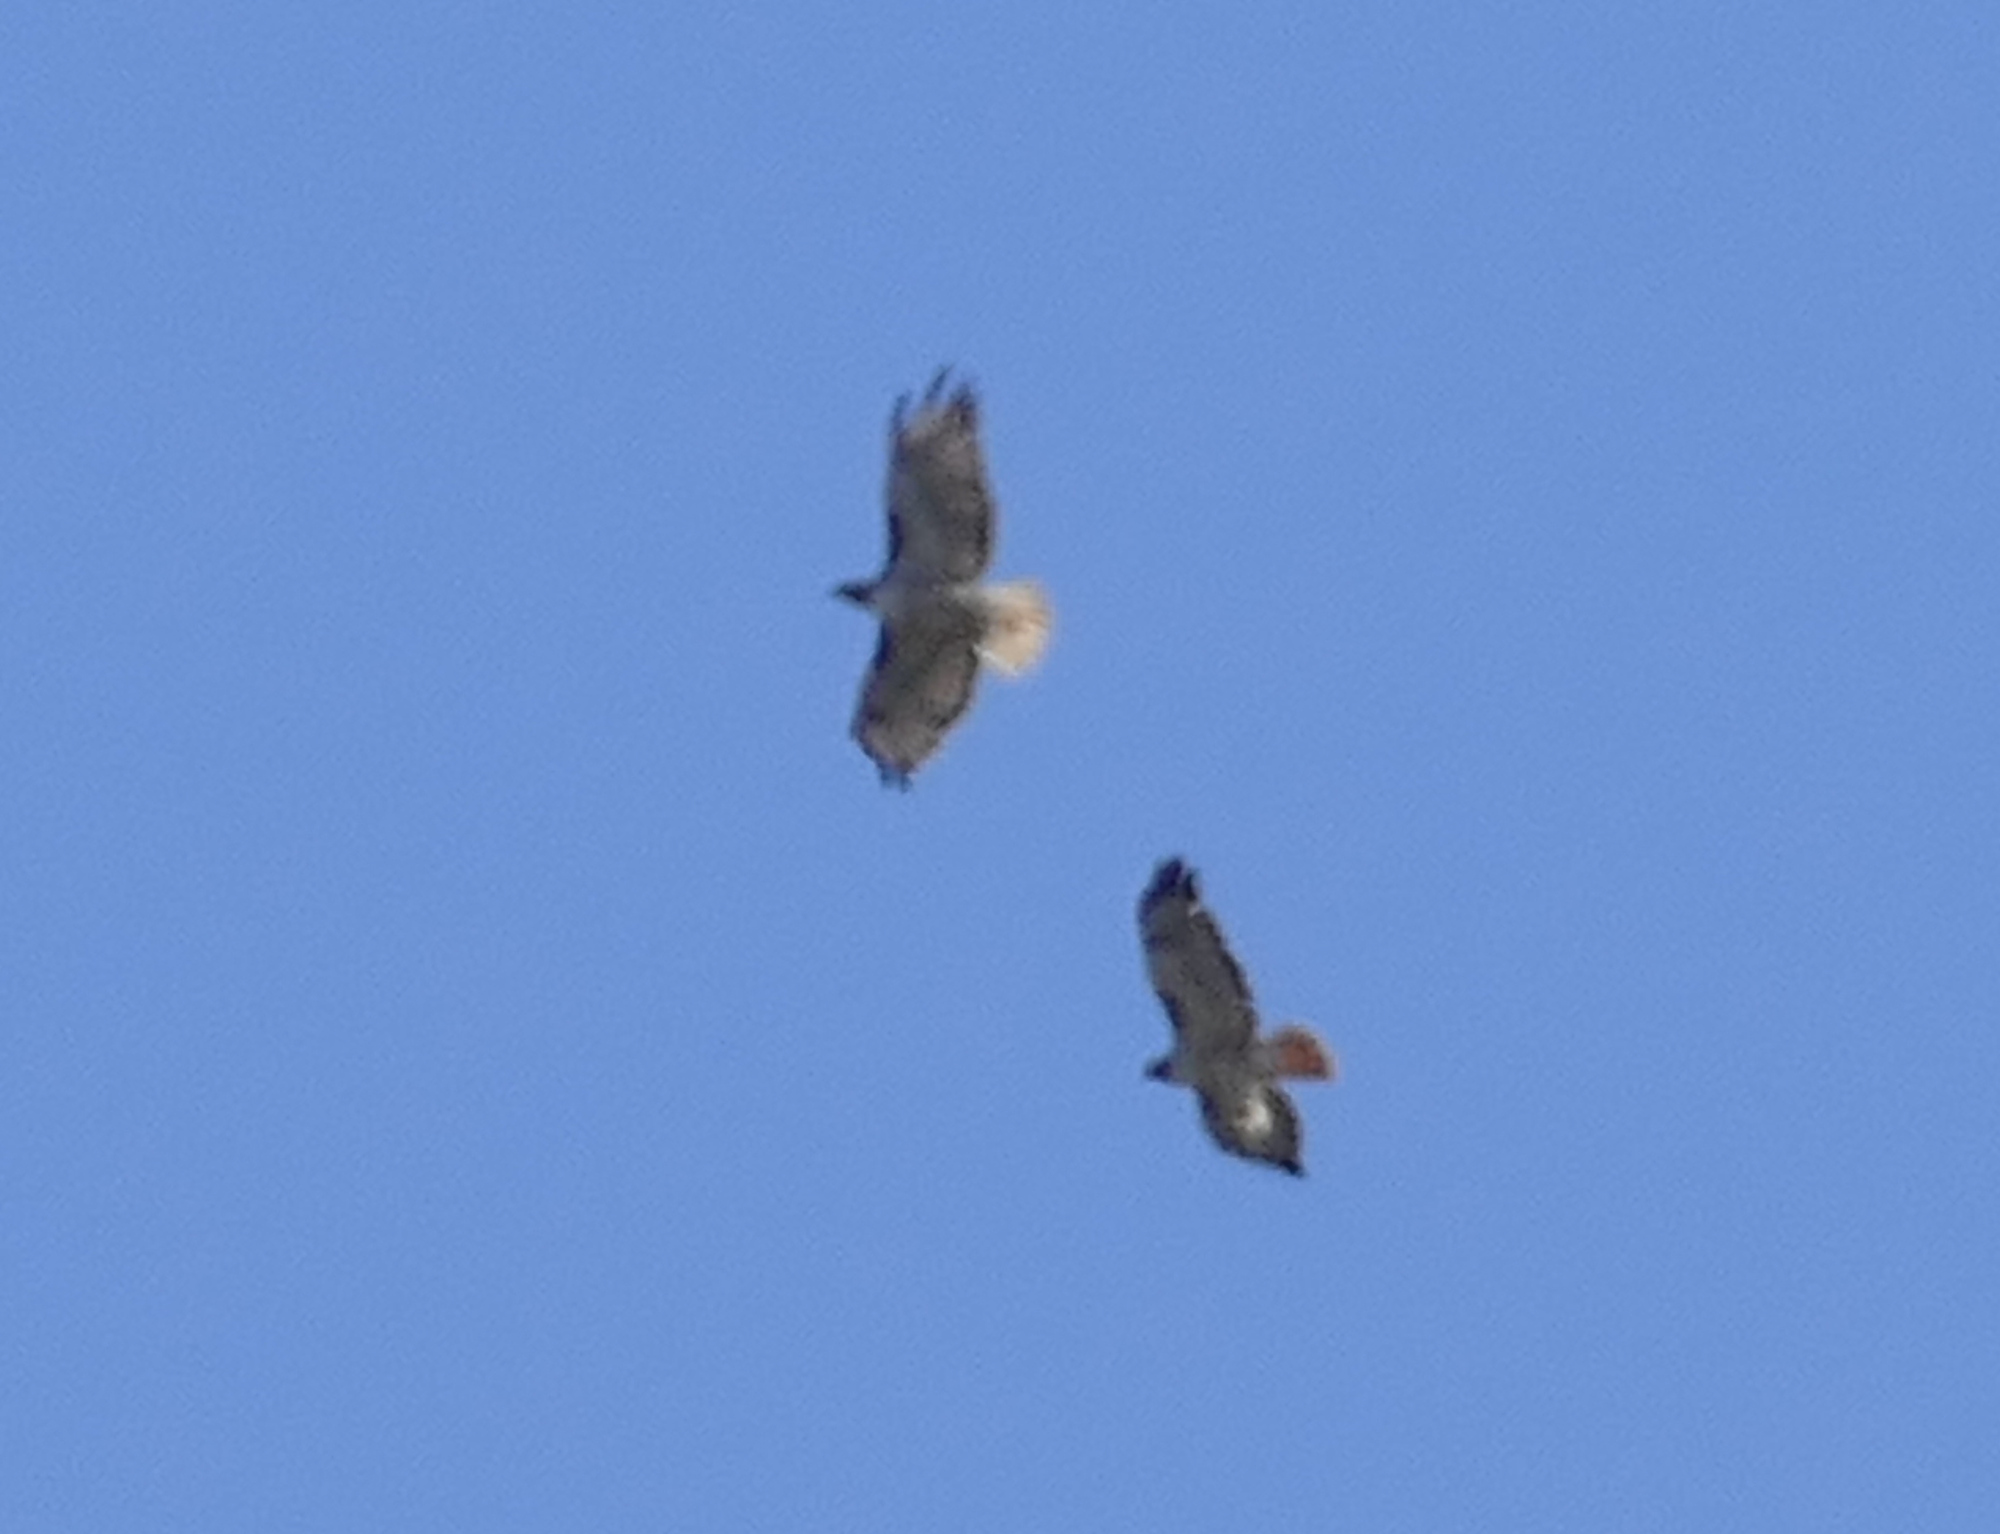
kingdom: Animalia
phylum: Chordata
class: Aves
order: Accipitriformes
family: Accipitridae
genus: Buteo
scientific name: Buteo jamaicensis
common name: Red-tailed hawk
